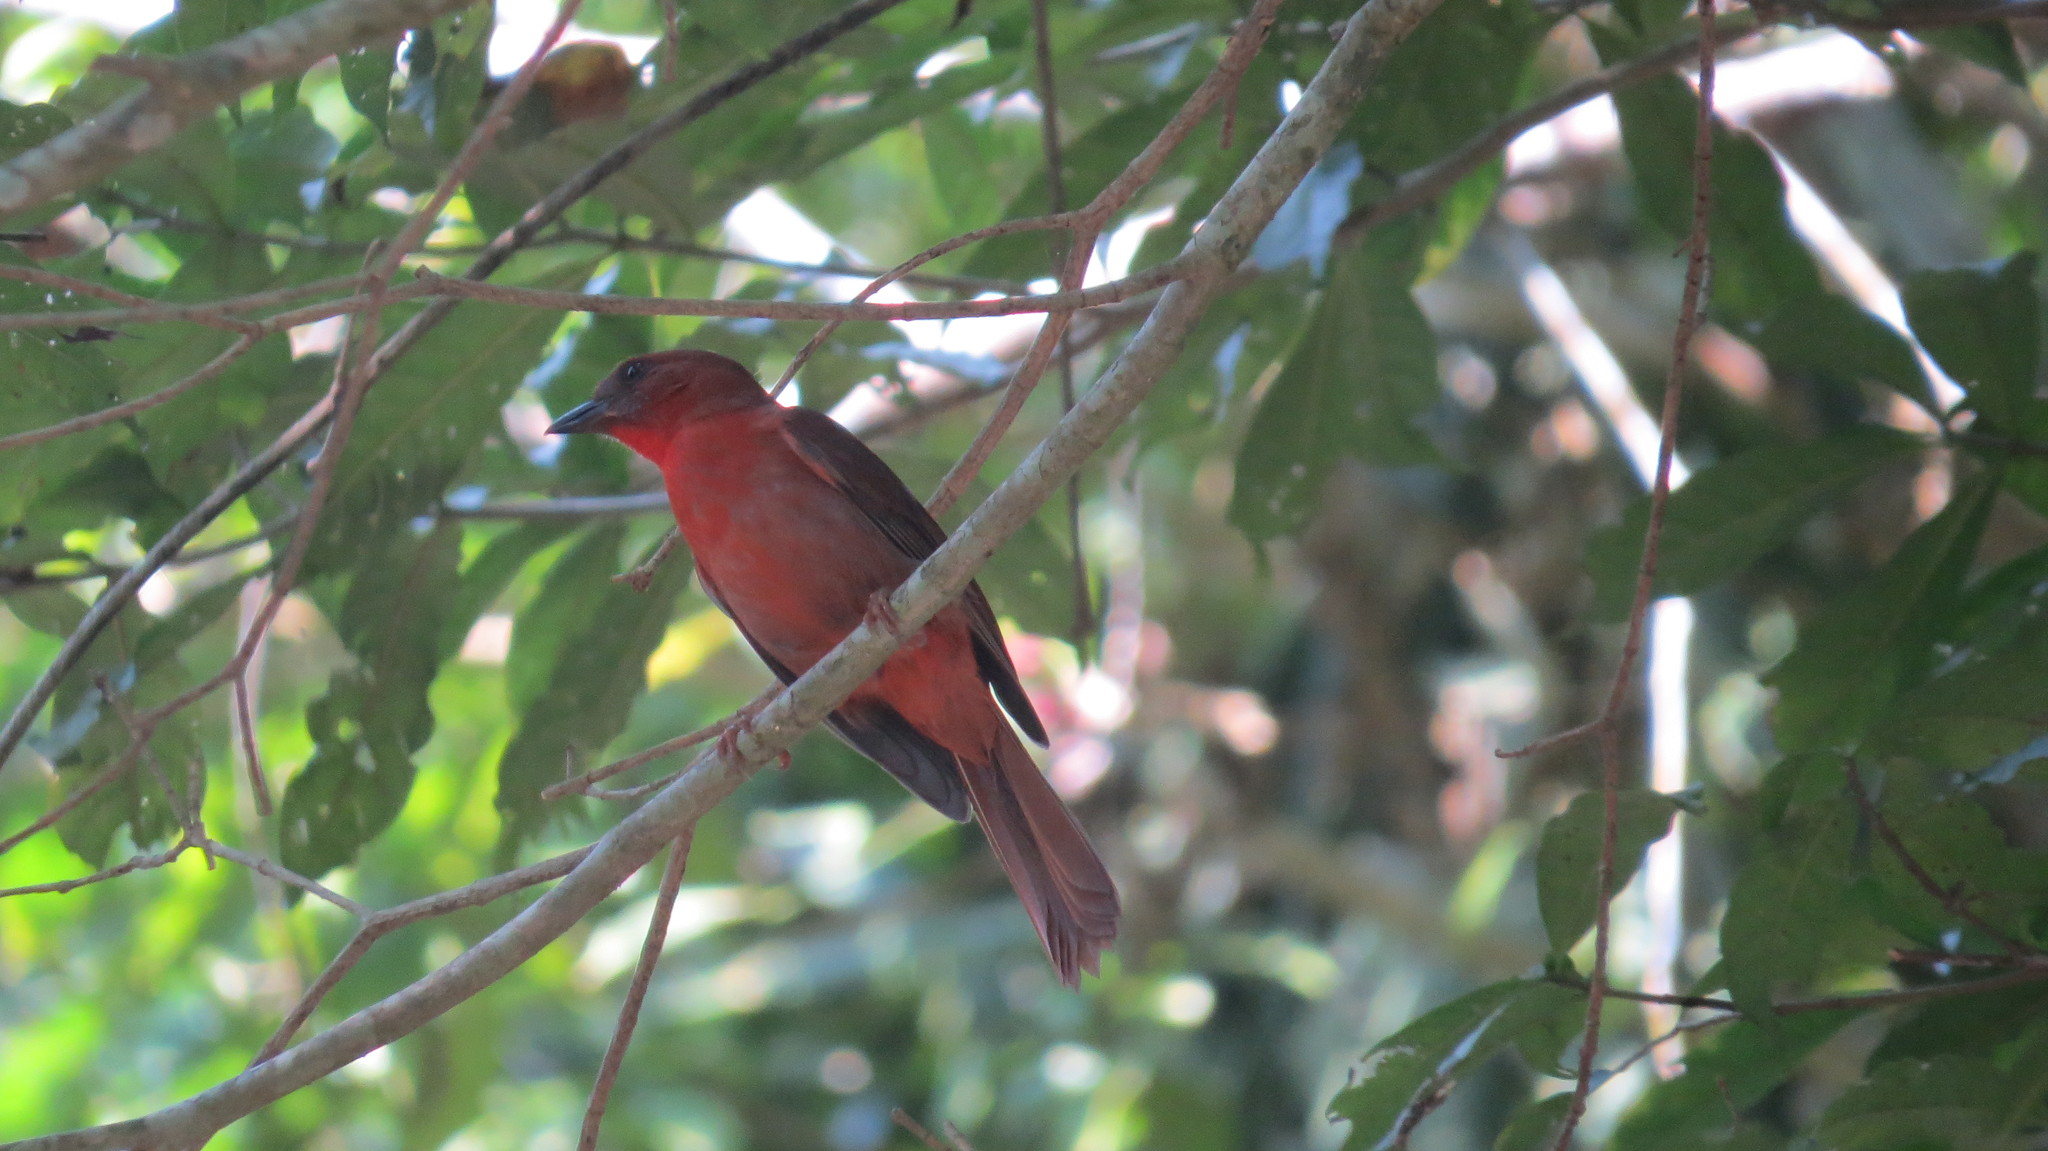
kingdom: Animalia
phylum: Chordata
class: Aves
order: Passeriformes
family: Cardinalidae
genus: Habia
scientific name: Habia fuscicauda
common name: Red-throated ant-tanager
